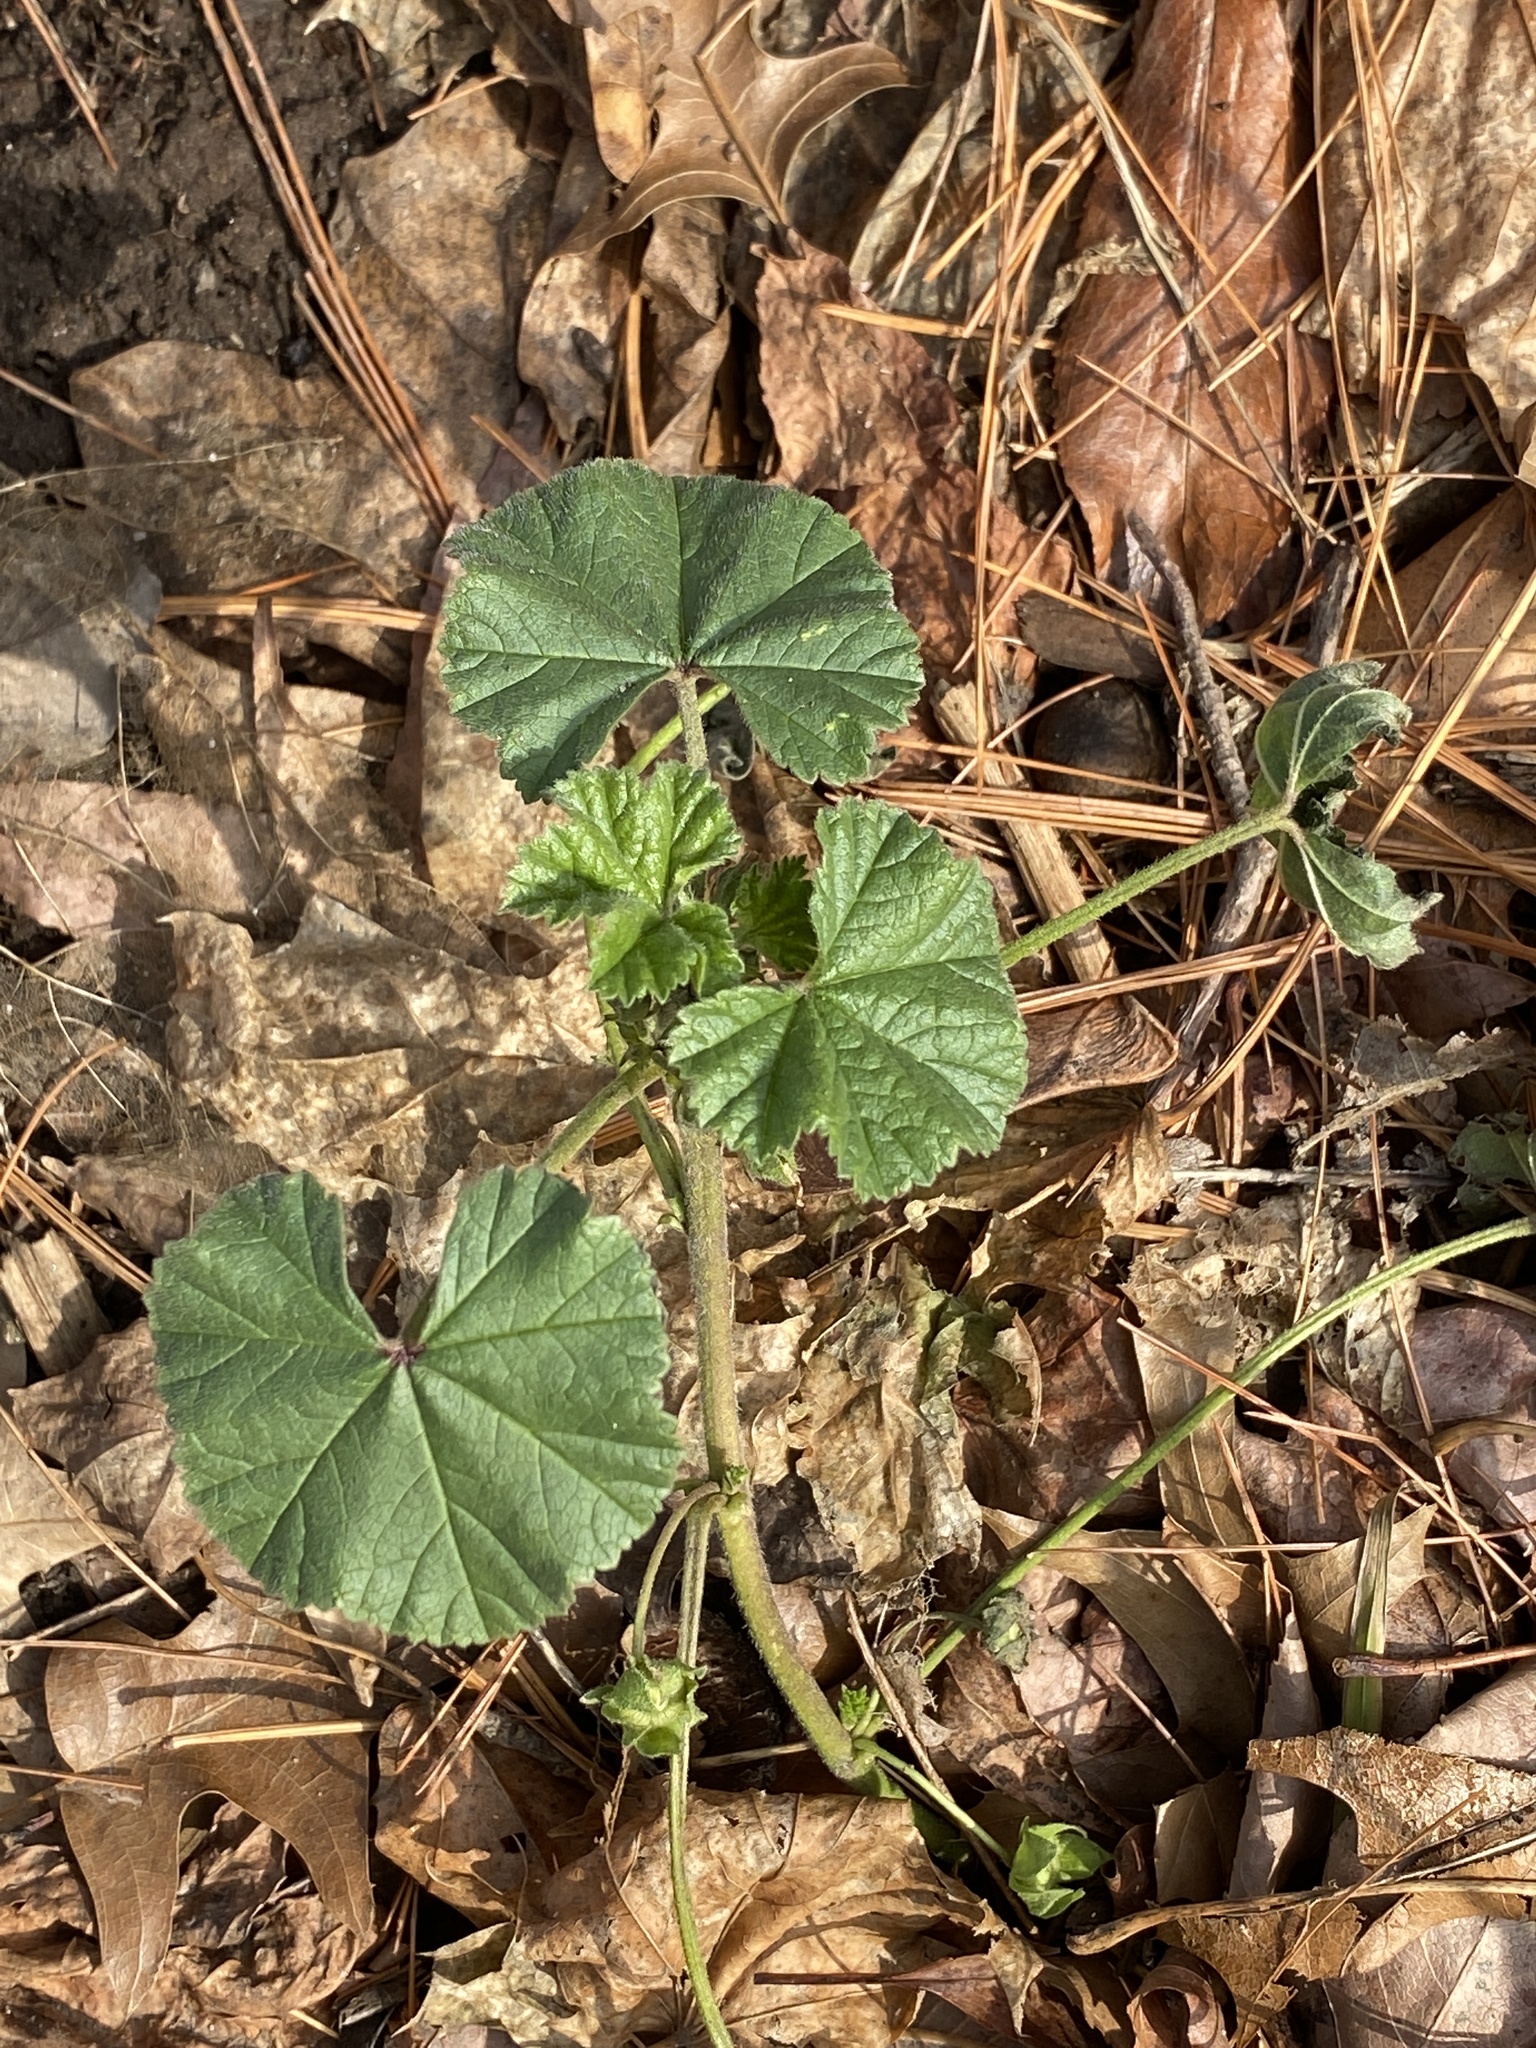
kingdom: Plantae
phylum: Tracheophyta
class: Magnoliopsida
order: Malvales
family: Malvaceae
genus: Malva
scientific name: Malva neglecta
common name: Common mallow
